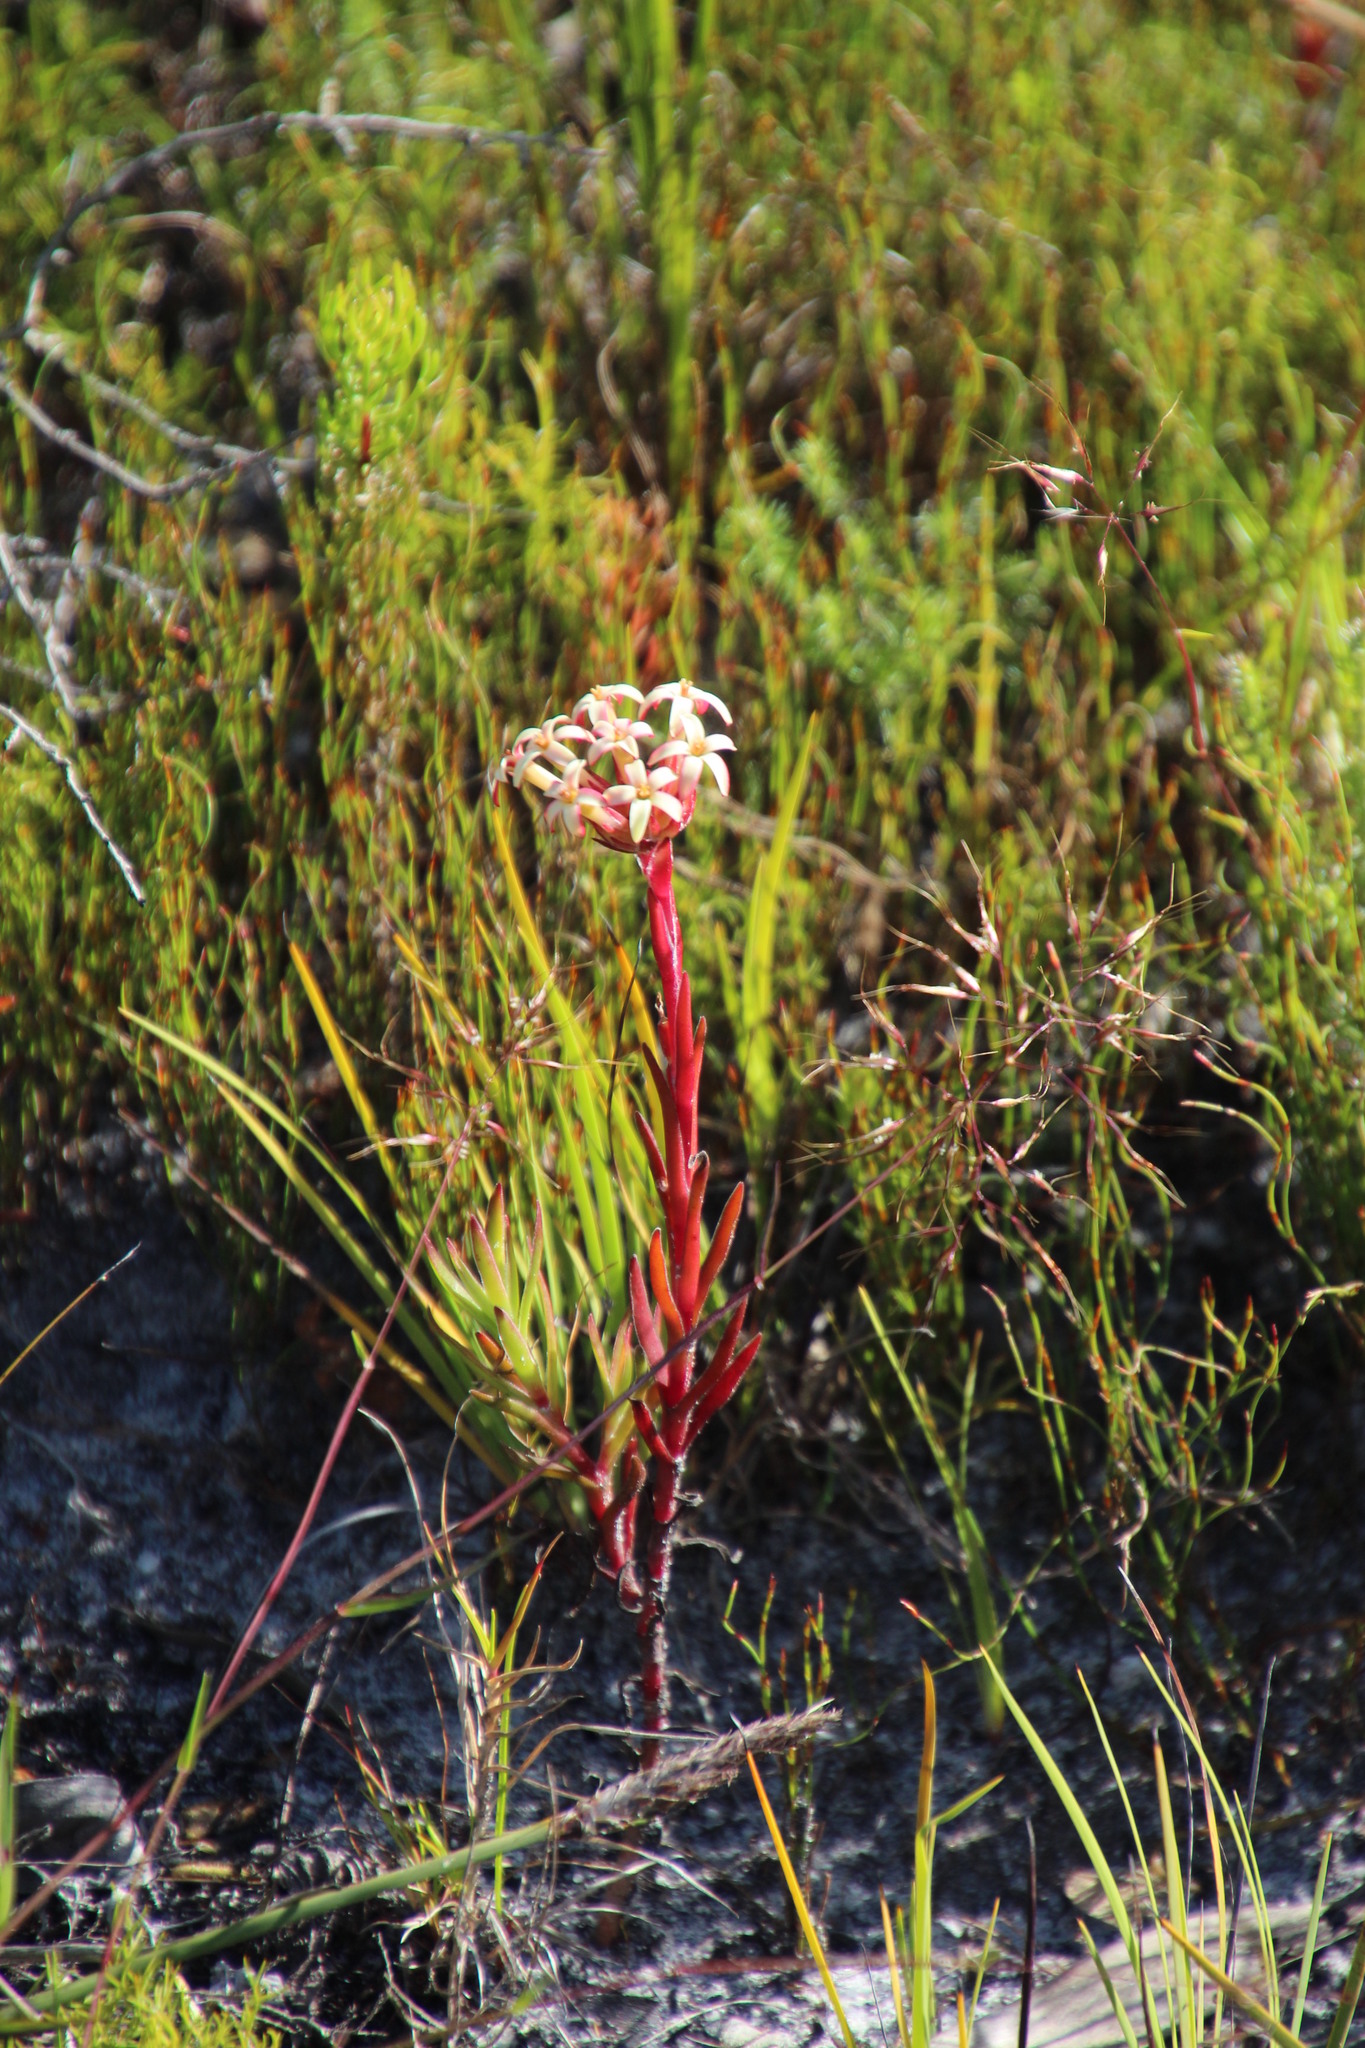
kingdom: Plantae
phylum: Tracheophyta
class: Liliopsida
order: Asparagales
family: Orchidaceae
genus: Satyrium
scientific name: Satyrium bicorne
